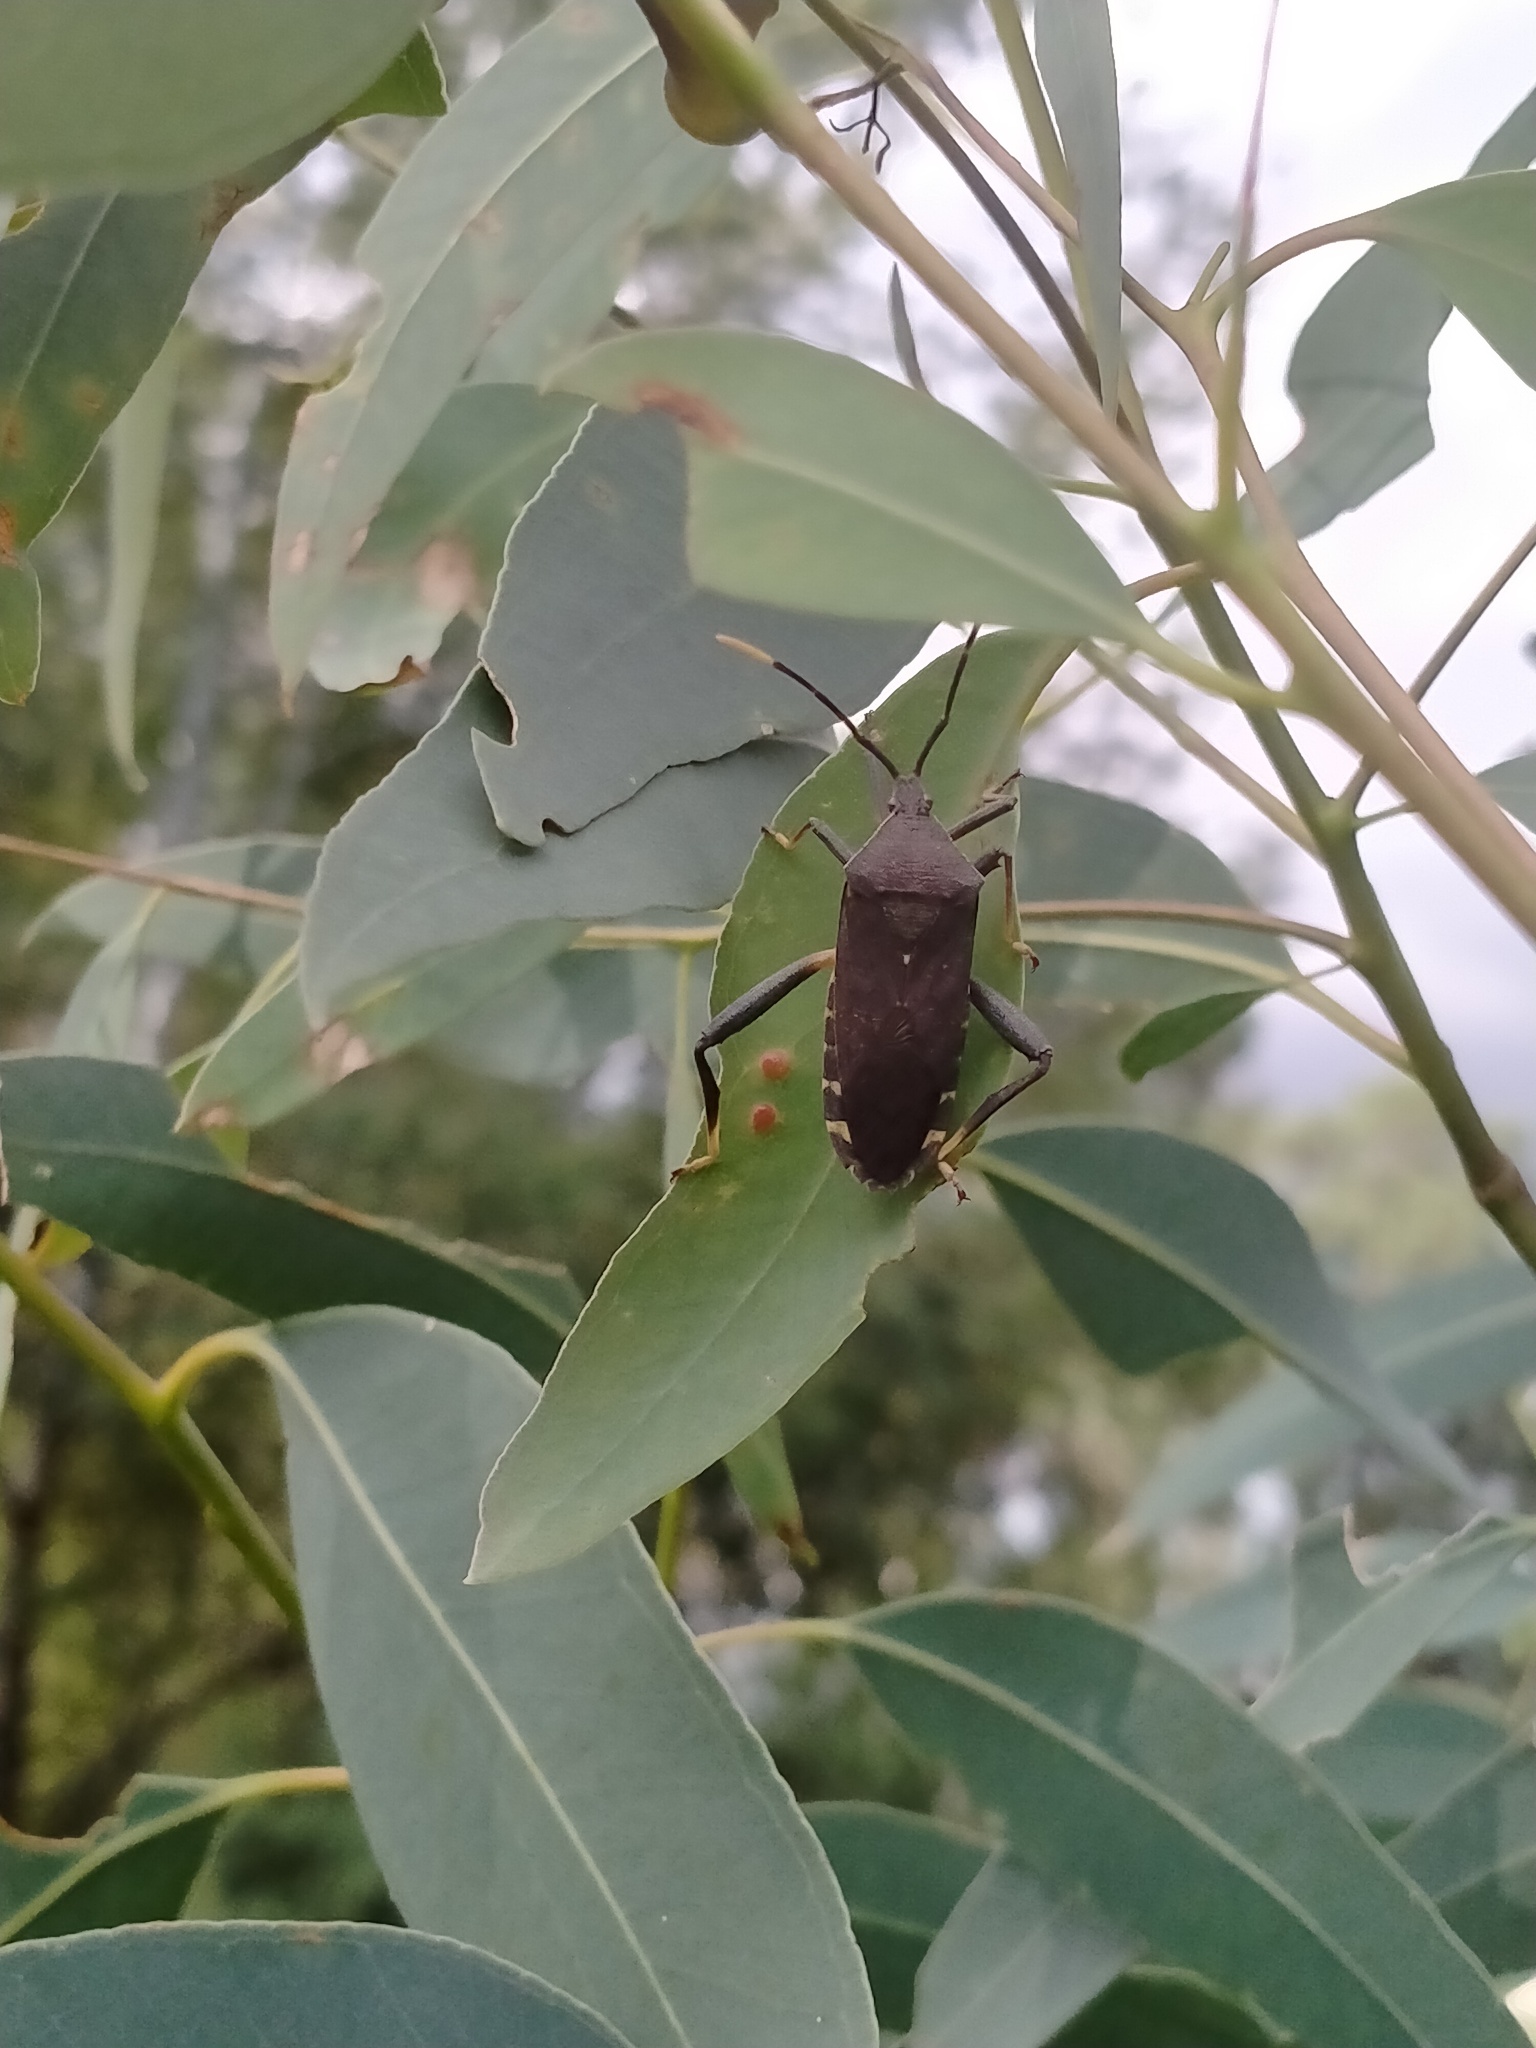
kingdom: Animalia
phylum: Arthropoda
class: Insecta
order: Hemiptera
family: Coreidae
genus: Amorbus
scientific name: Amorbus atomarius
